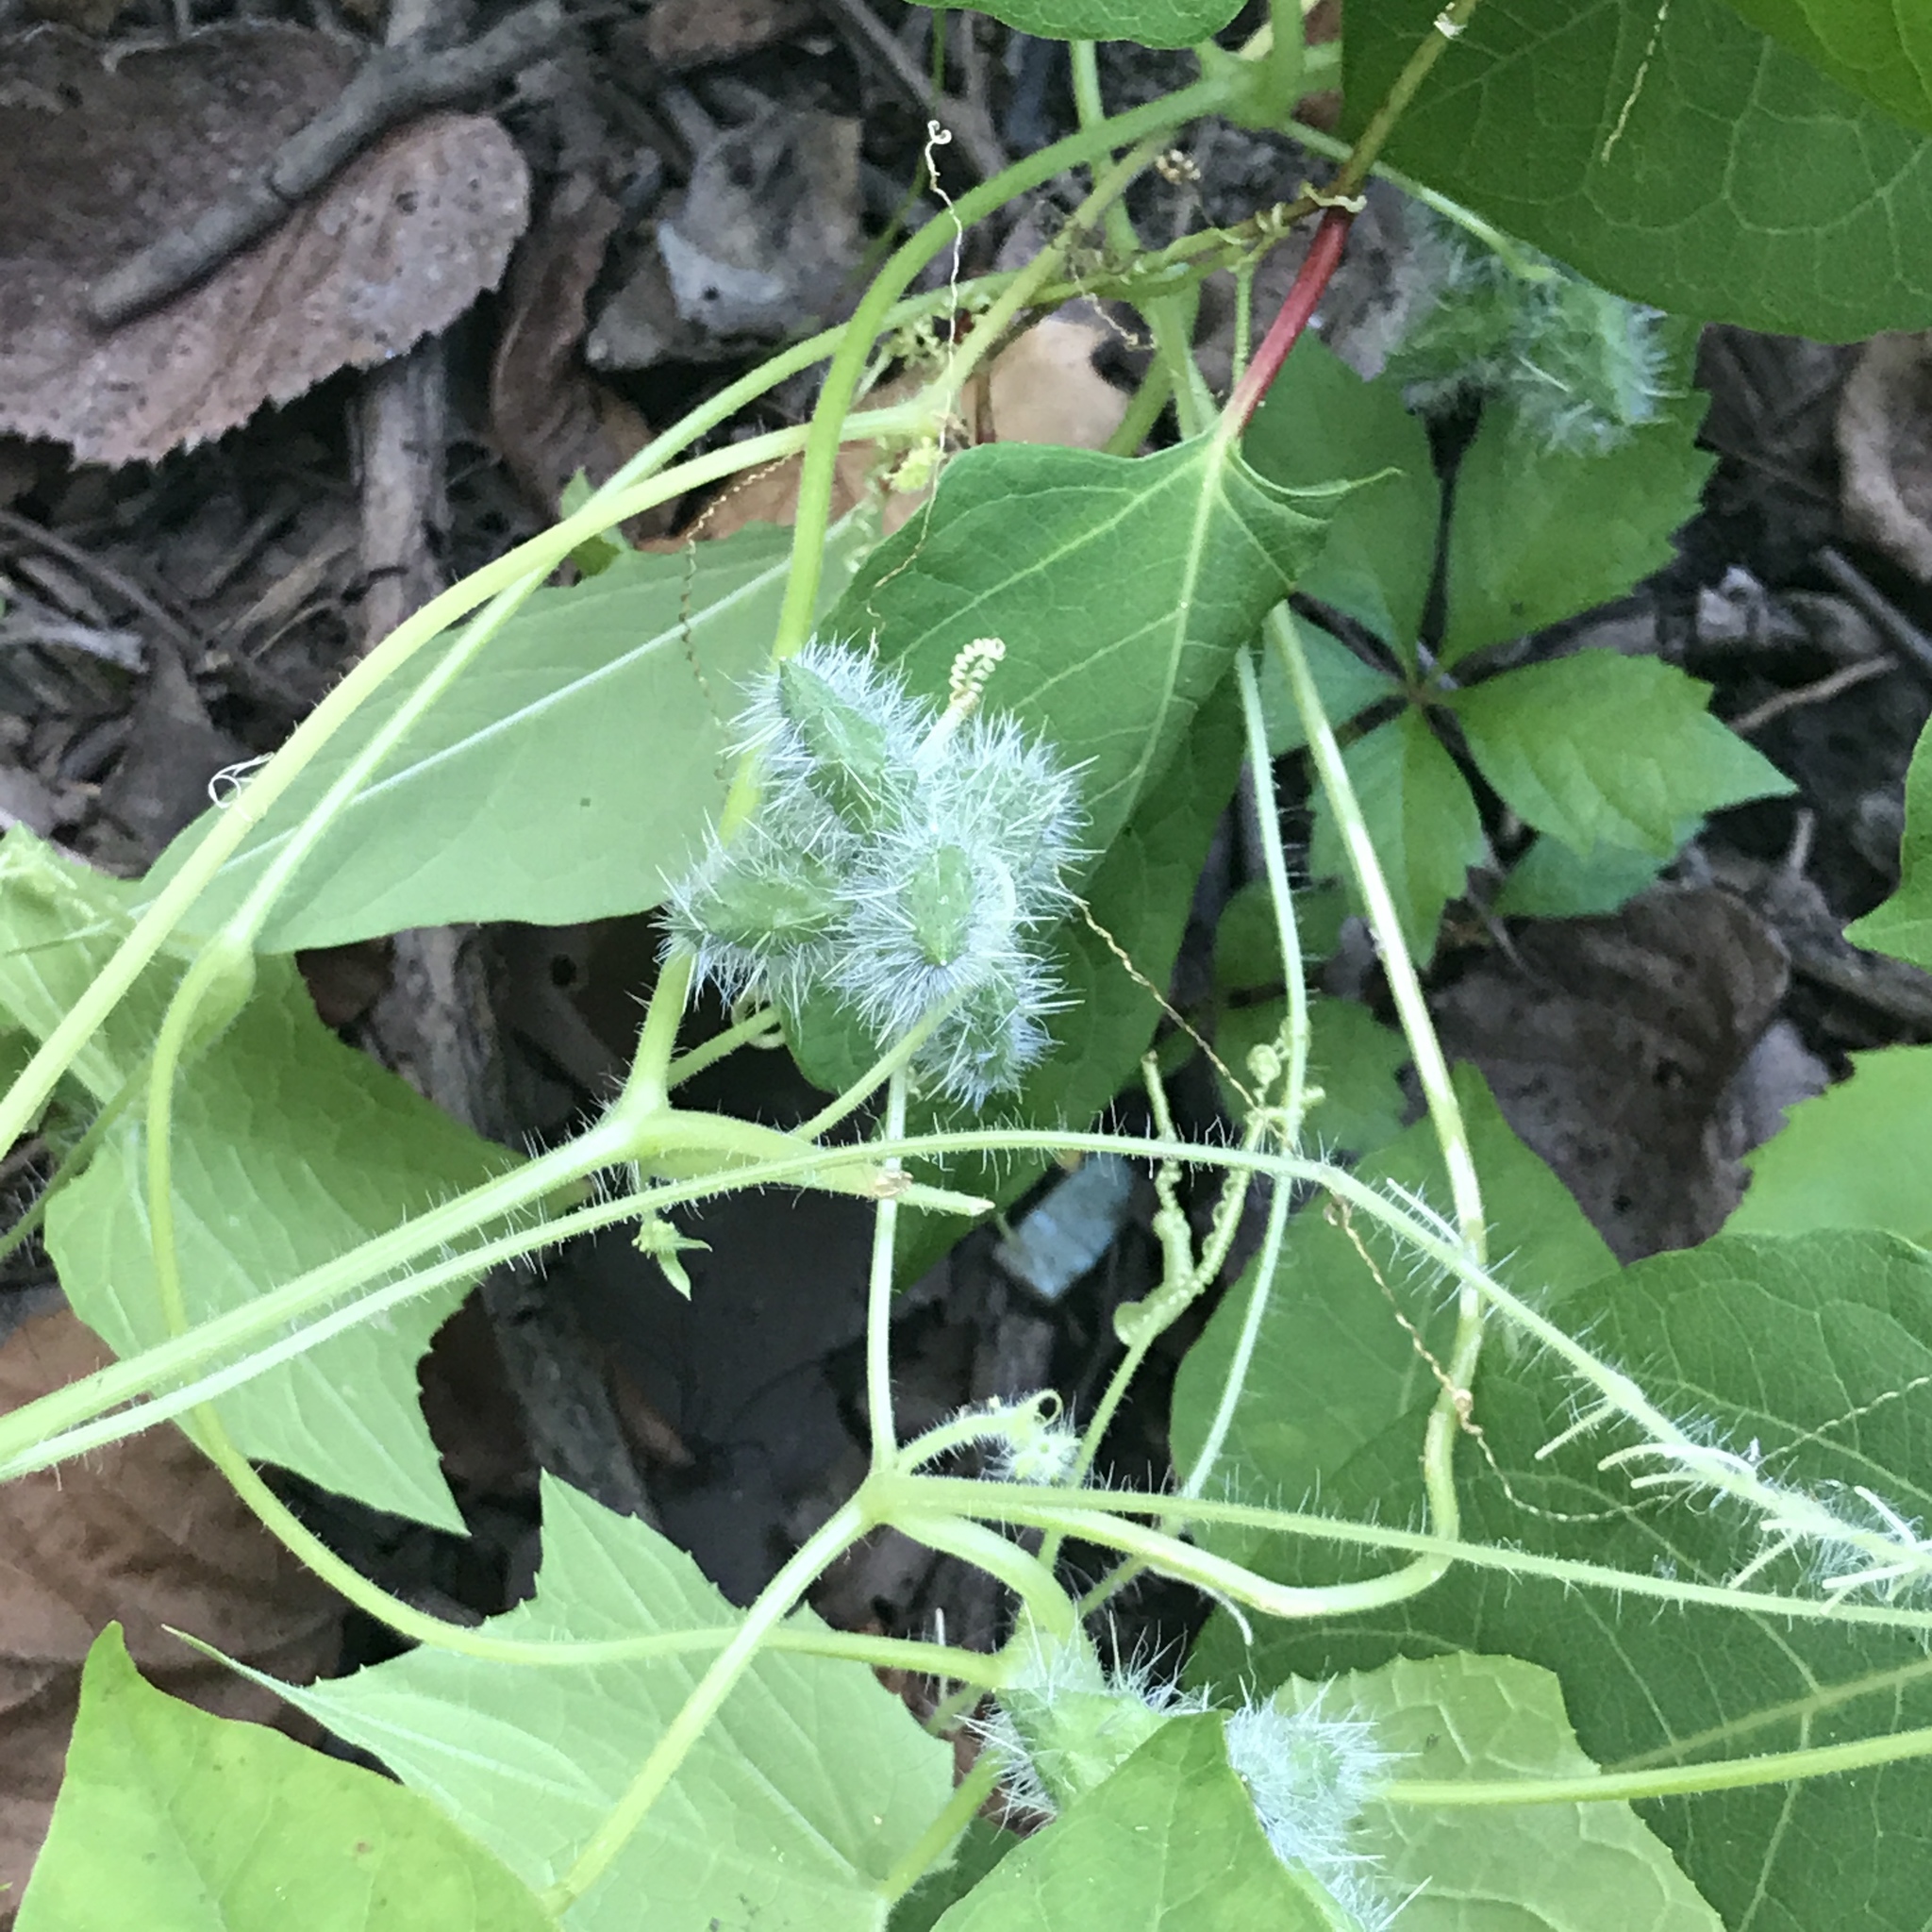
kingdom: Plantae
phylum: Tracheophyta
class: Magnoliopsida
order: Cucurbitales
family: Cucurbitaceae
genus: Sicyos
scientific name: Sicyos angulatus
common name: Angled burr cucumber
